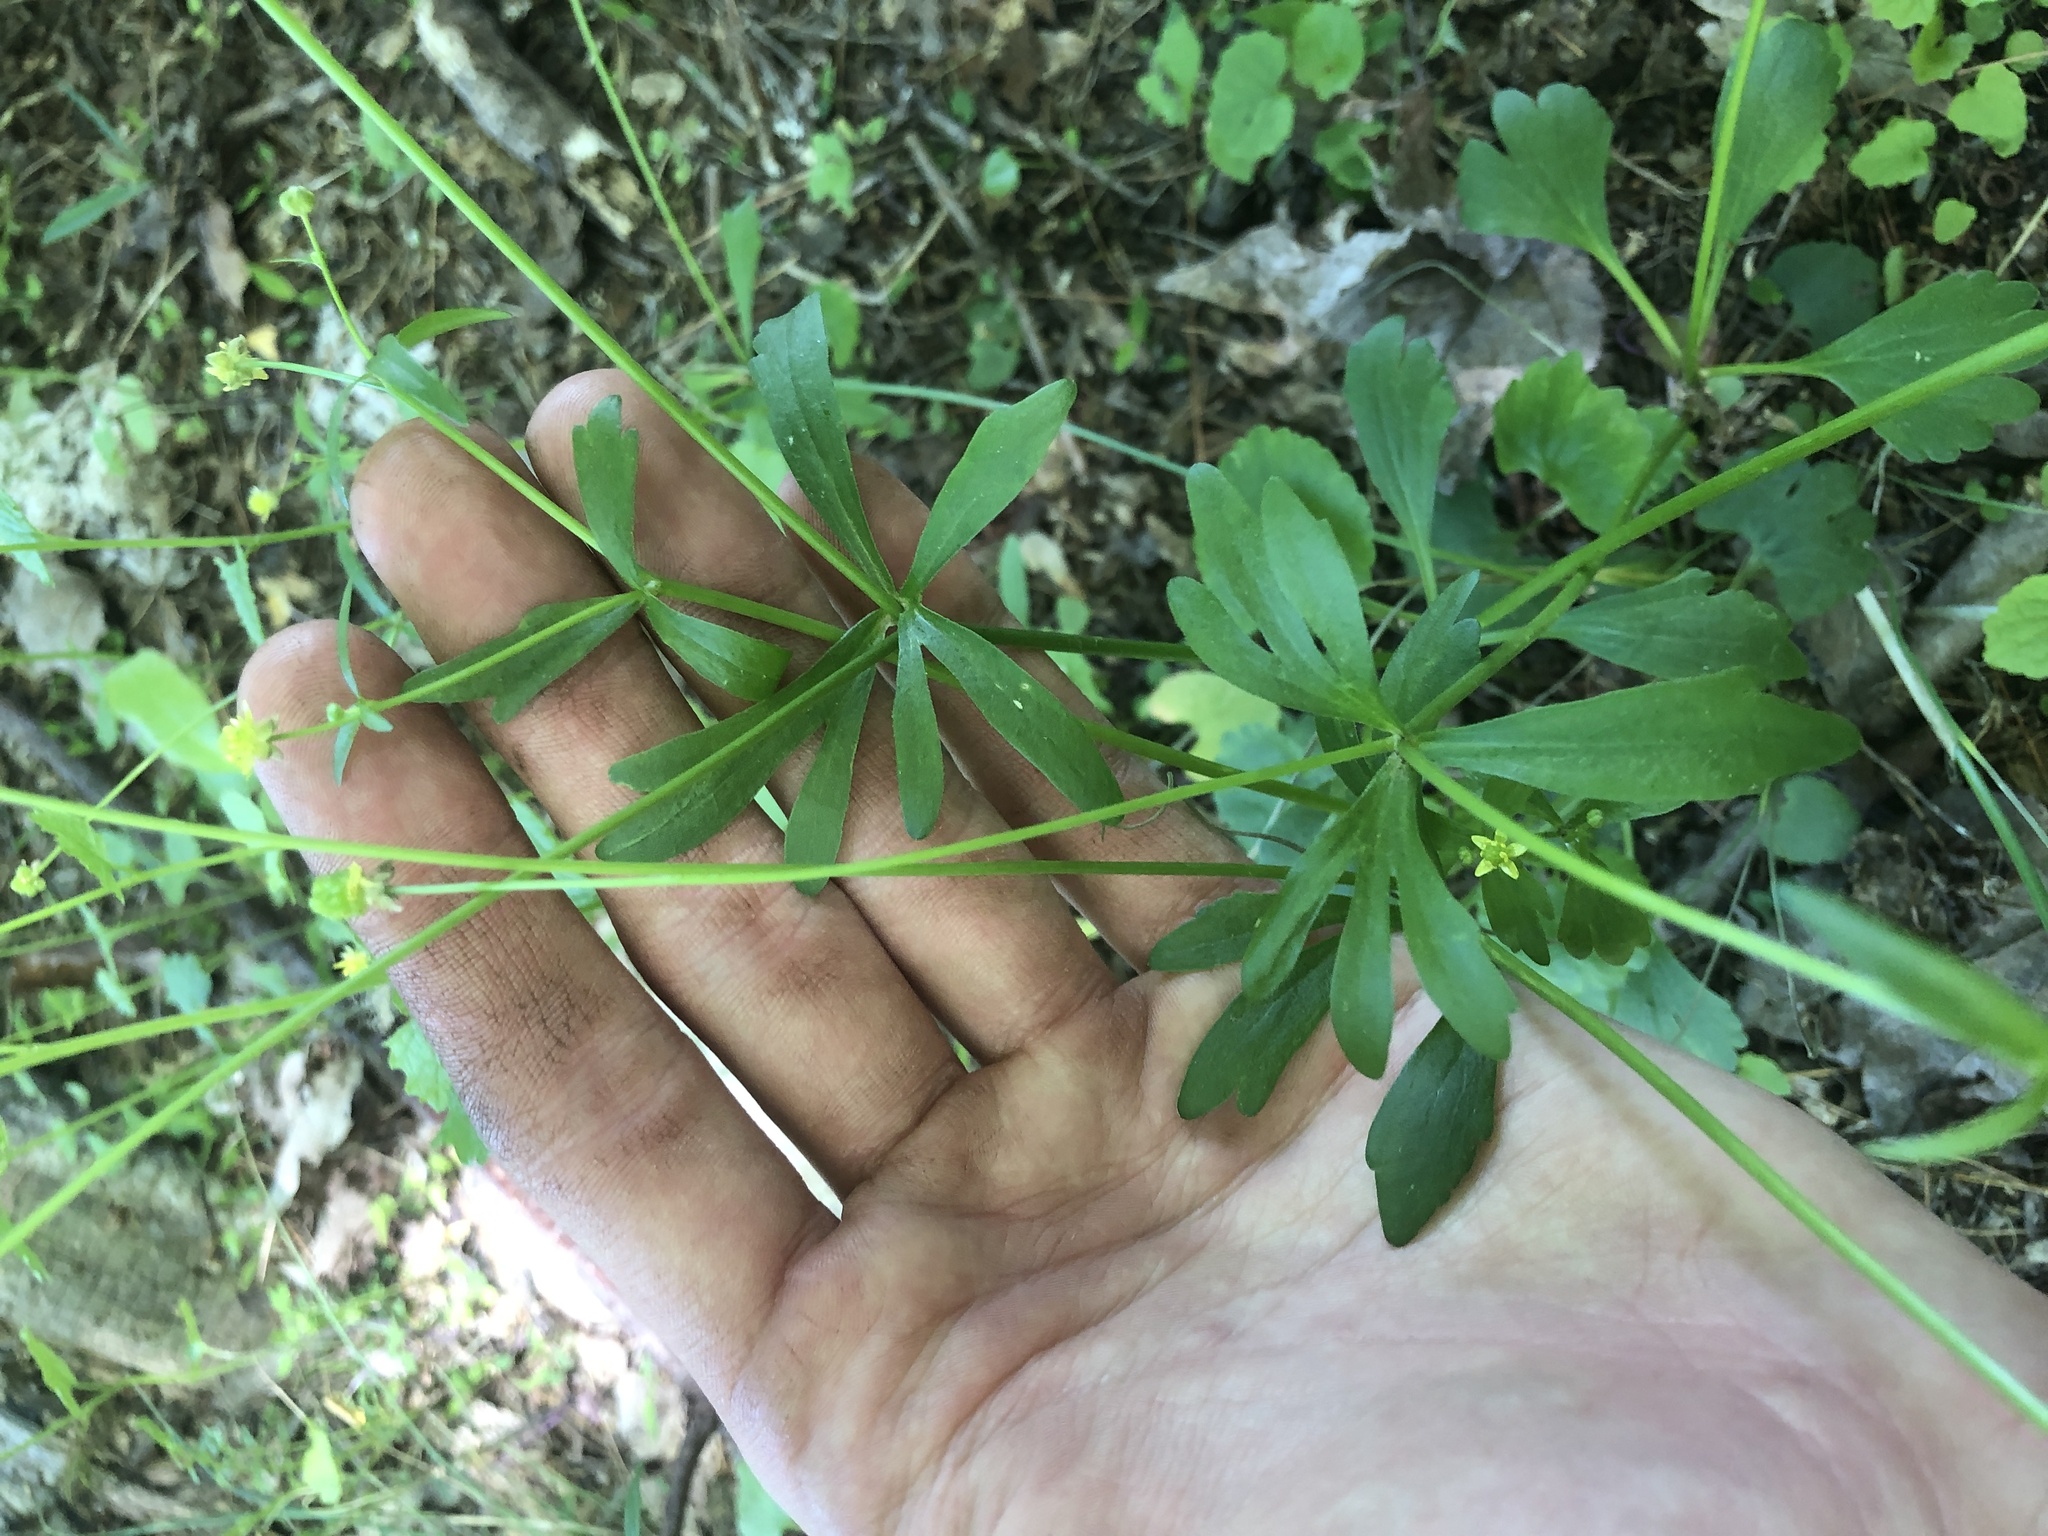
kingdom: Plantae
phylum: Tracheophyta
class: Magnoliopsida
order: Ranunculales
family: Ranunculaceae
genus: Ranunculus
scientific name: Ranunculus abortivus
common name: Early wood buttercup
